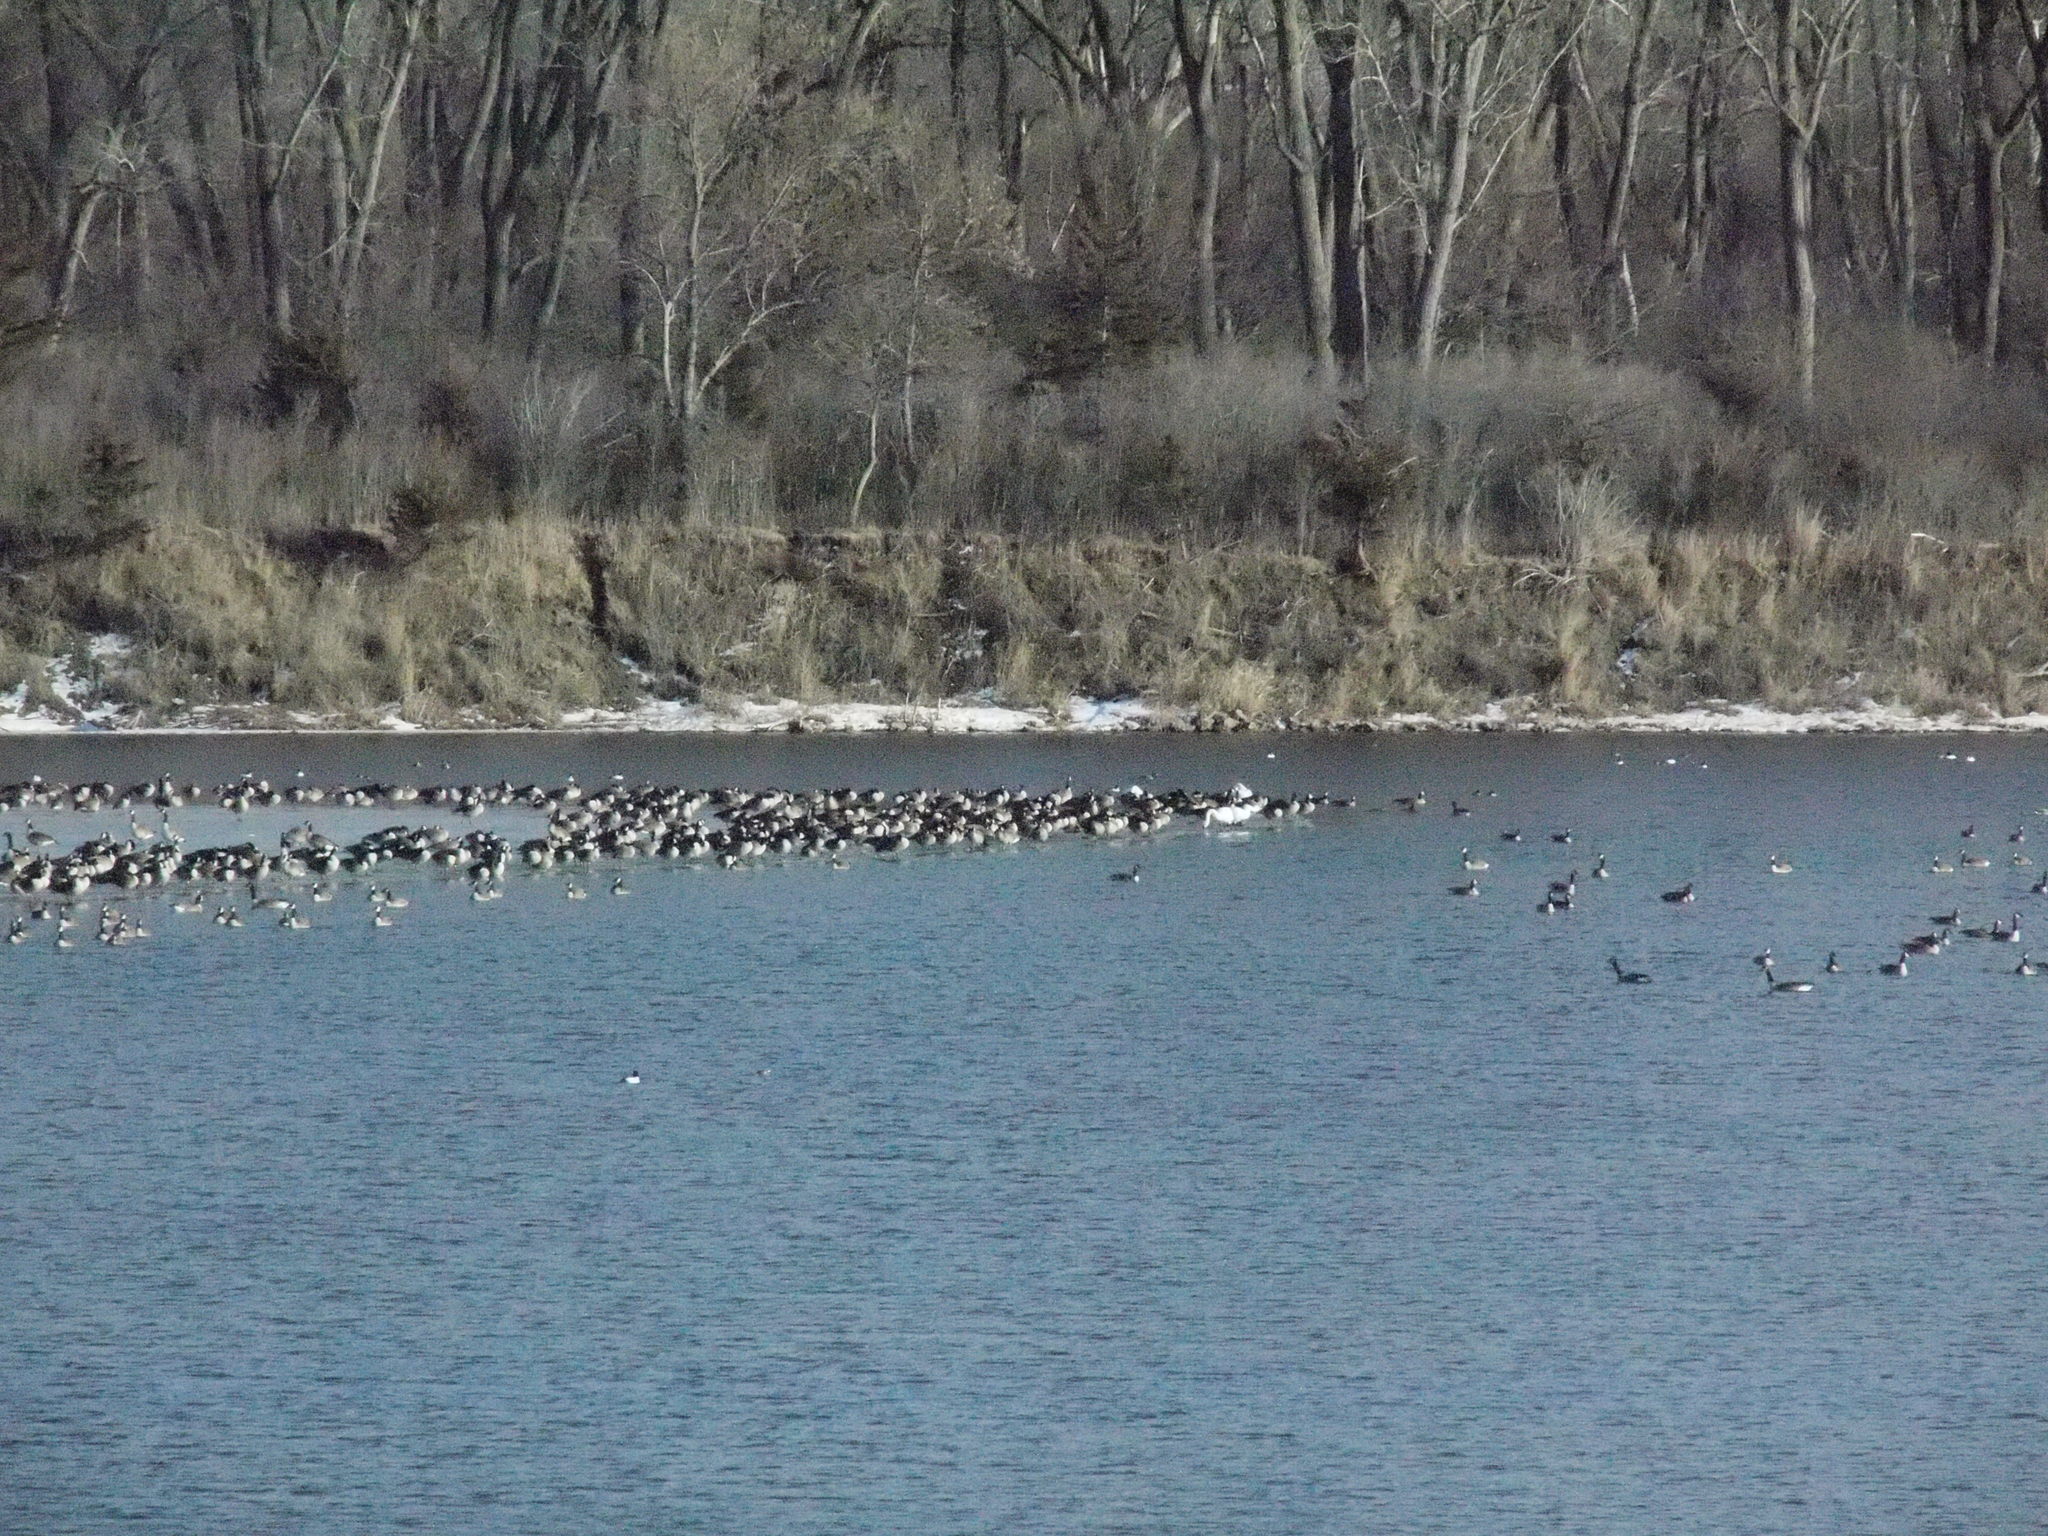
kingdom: Animalia
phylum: Chordata
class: Aves
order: Anseriformes
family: Anatidae
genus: Cygnus
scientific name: Cygnus buccinator
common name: Trumpeter swan
